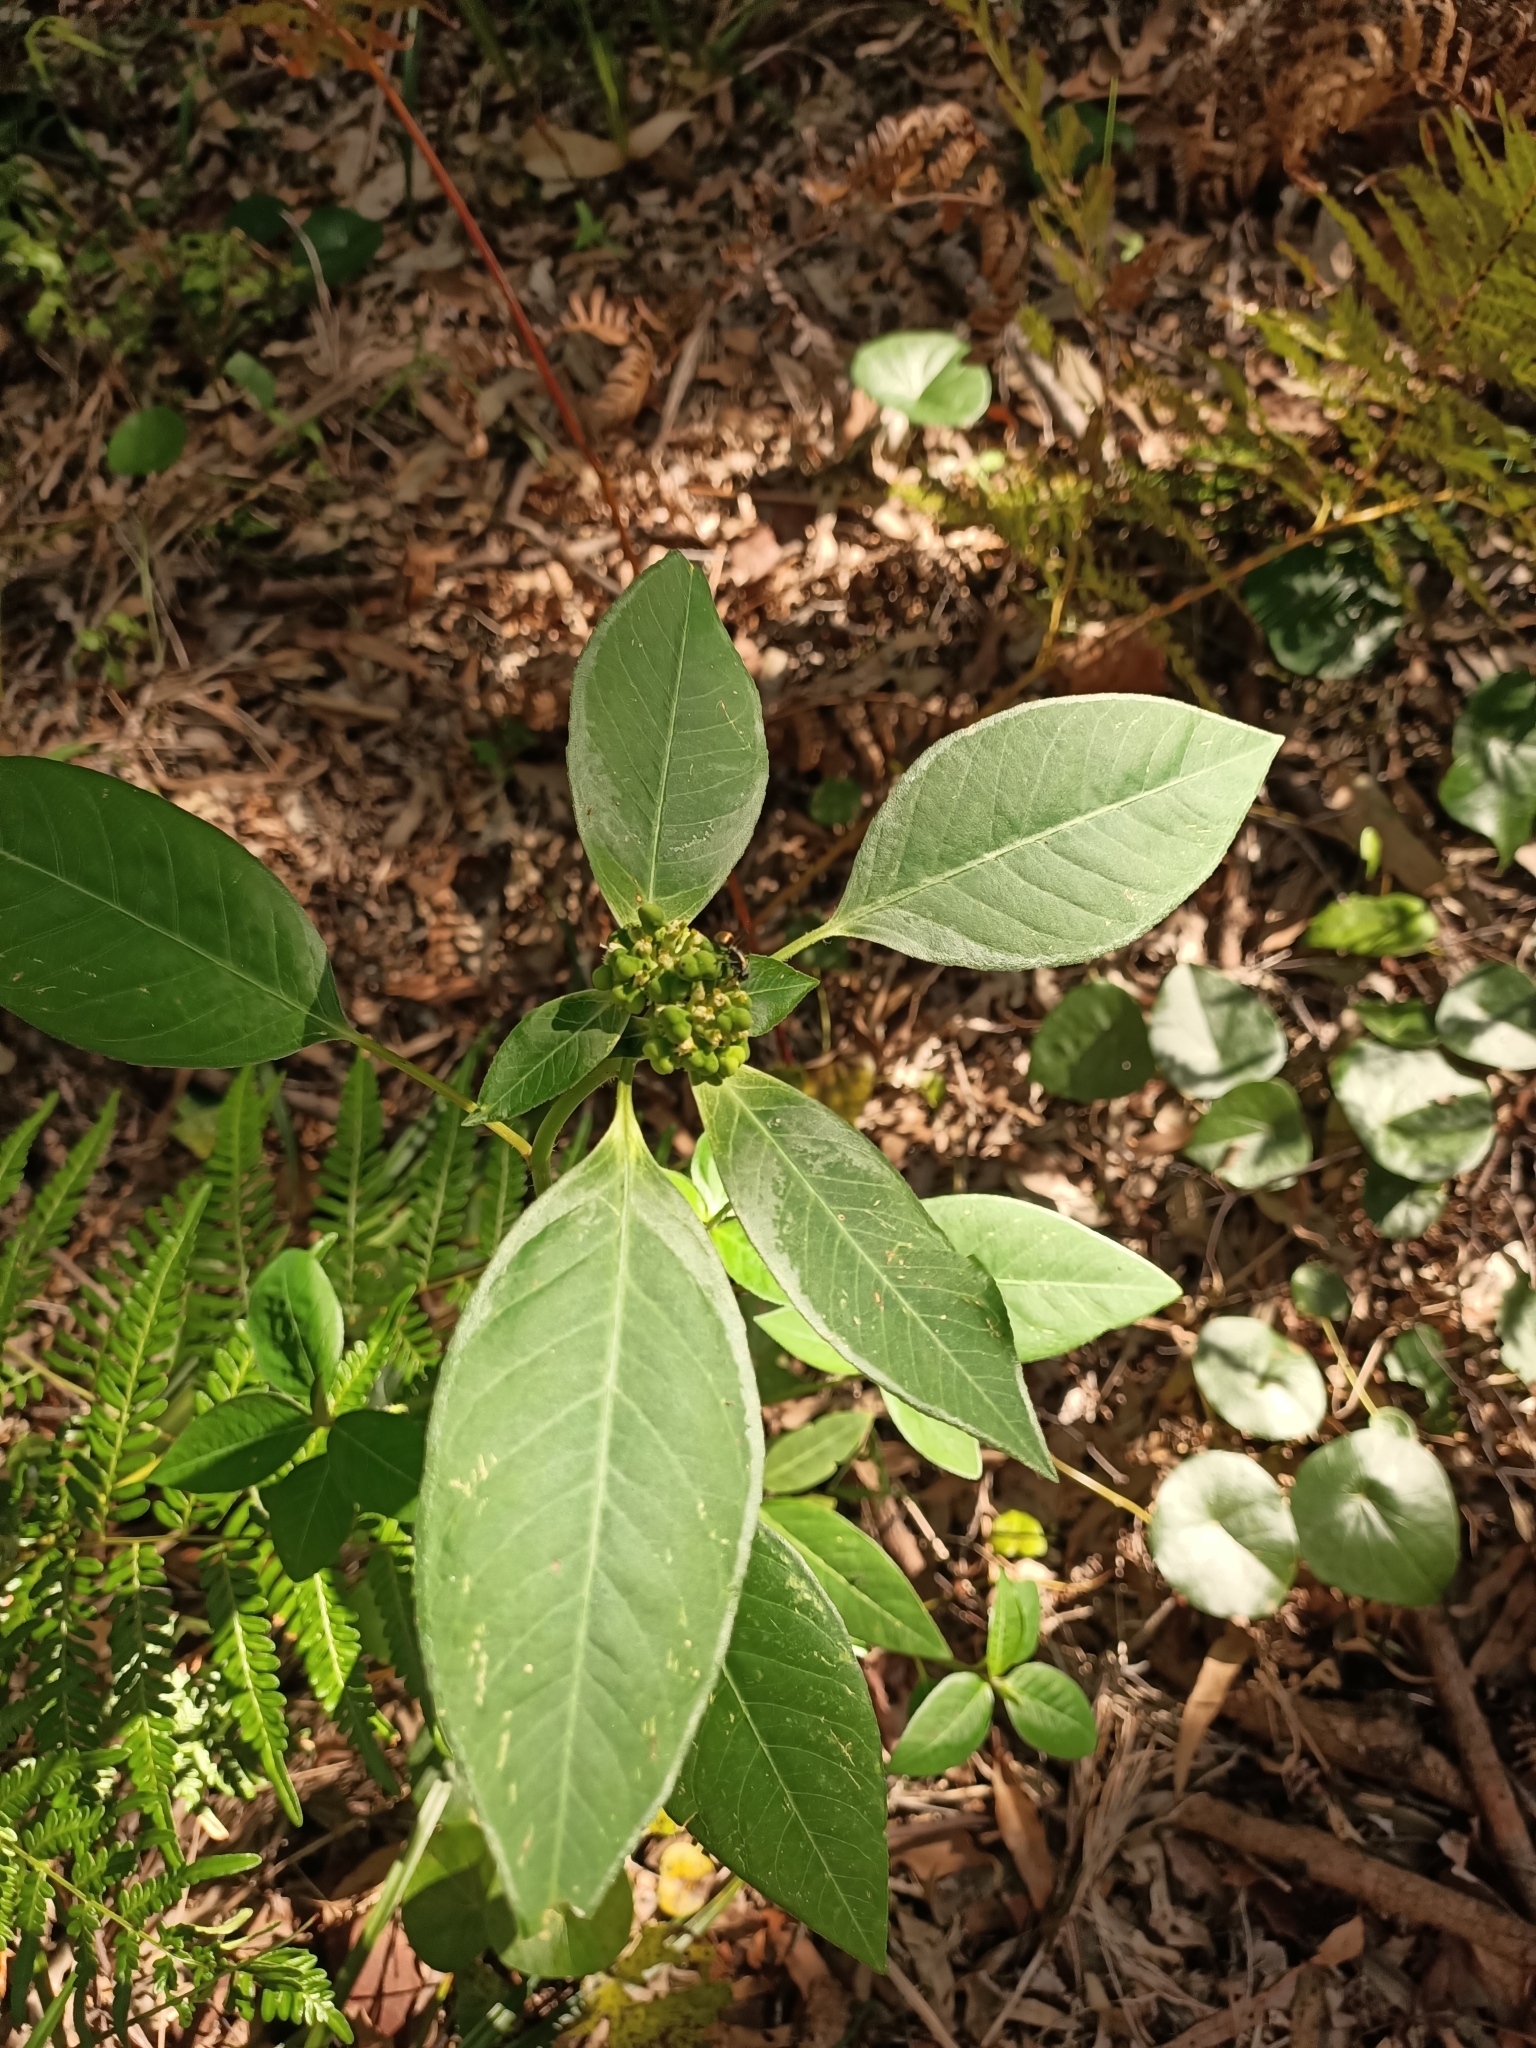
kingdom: Plantae
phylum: Tracheophyta
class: Magnoliopsida
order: Malpighiales
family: Euphorbiaceae
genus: Euphorbia
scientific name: Euphorbia heterophylla
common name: Mexican fireplant
